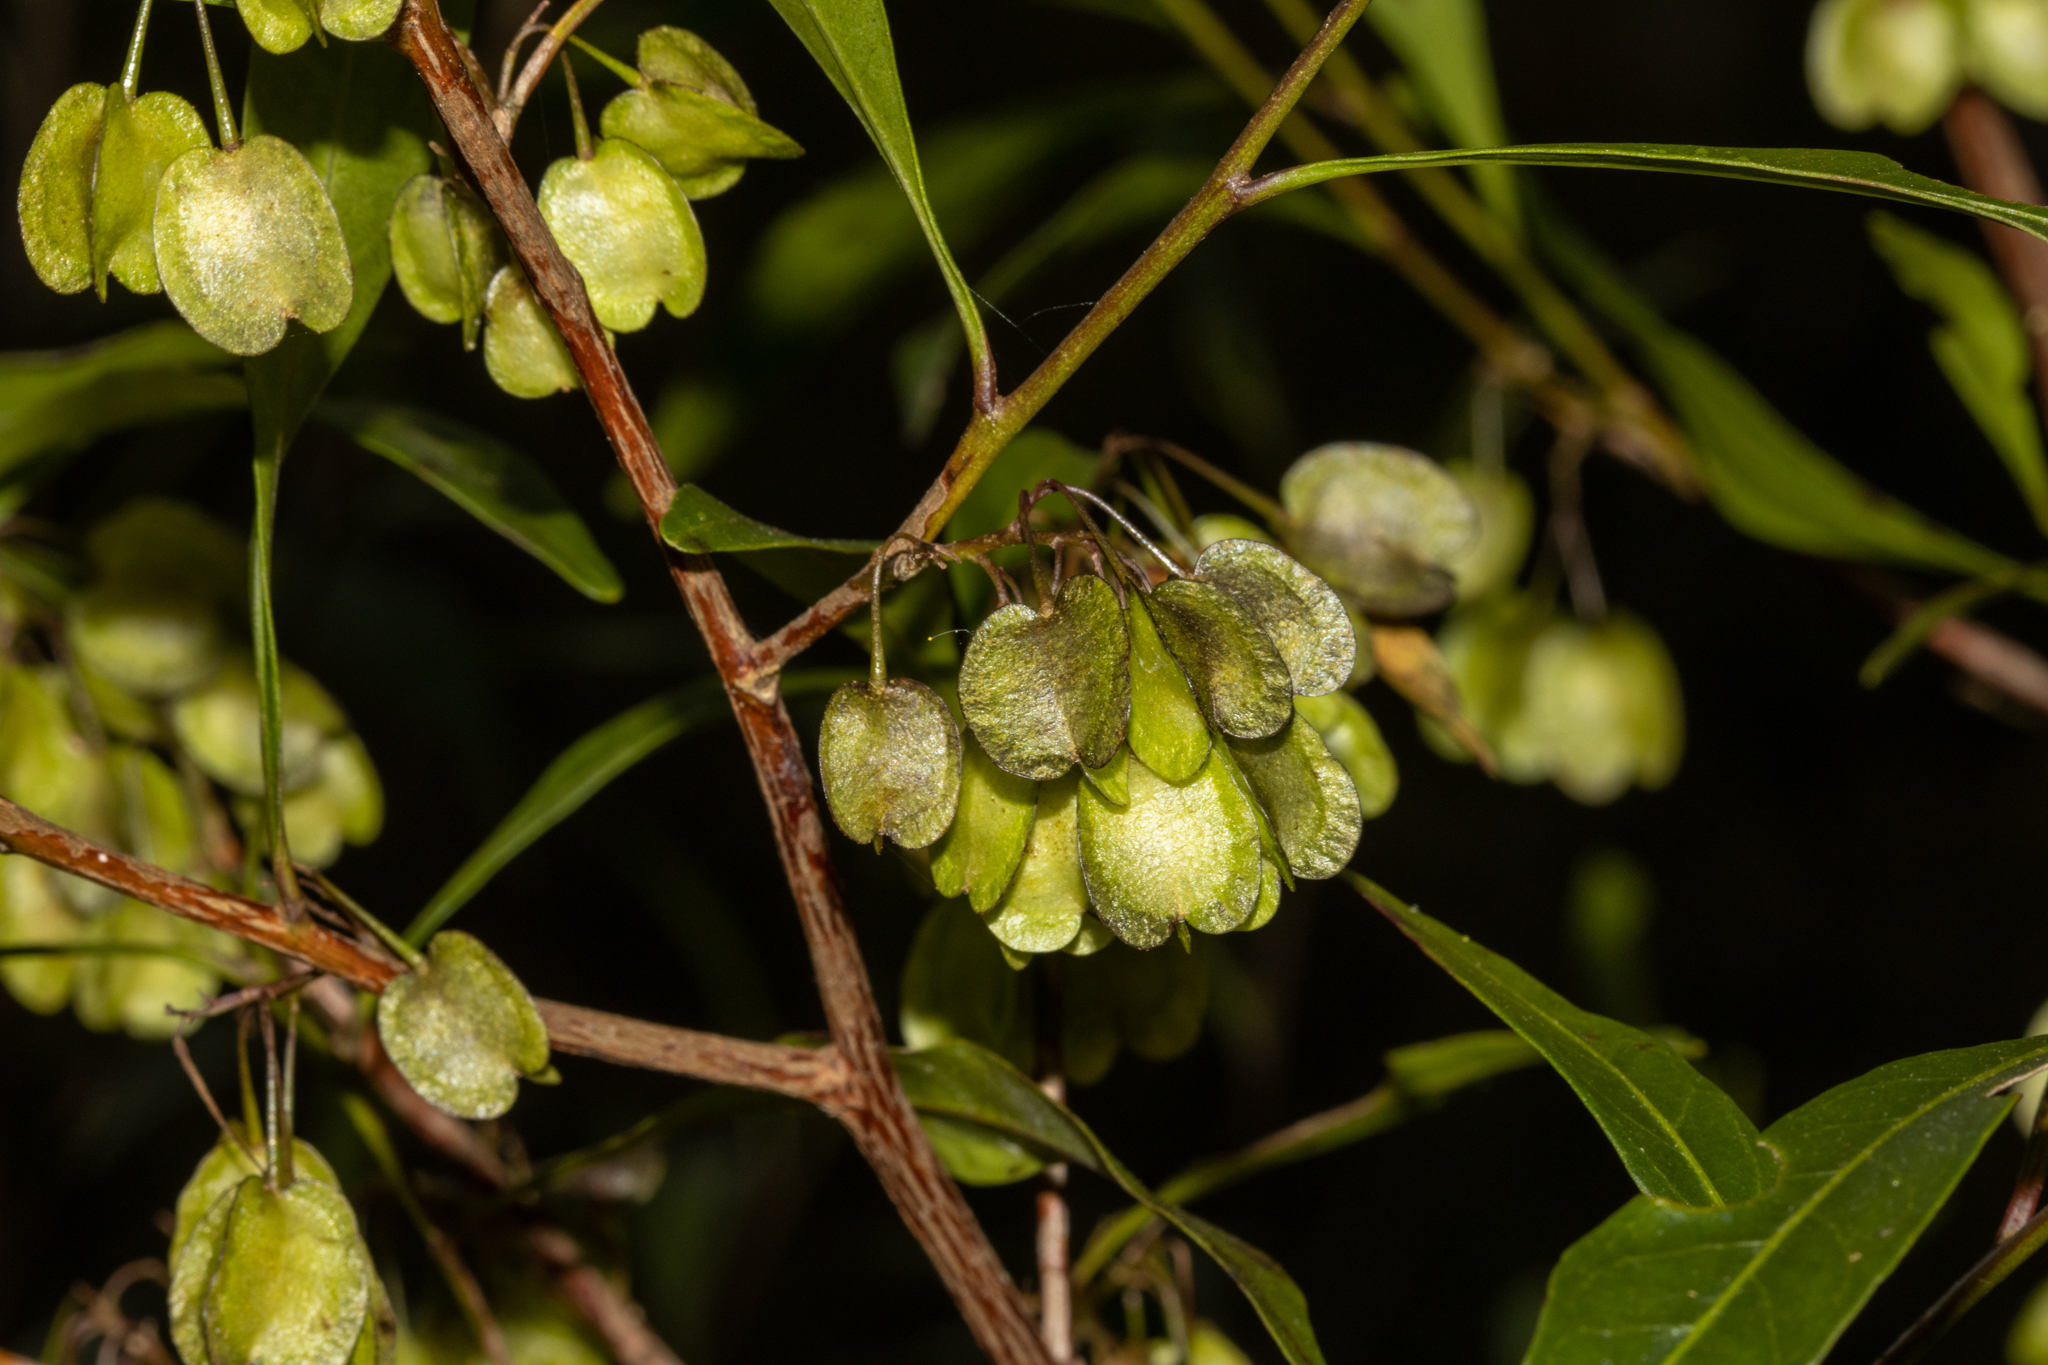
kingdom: Plantae
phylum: Tracheophyta
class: Magnoliopsida
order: Sapindales
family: Sapindaceae
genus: Dodonaea
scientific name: Dodonaea triquetra
